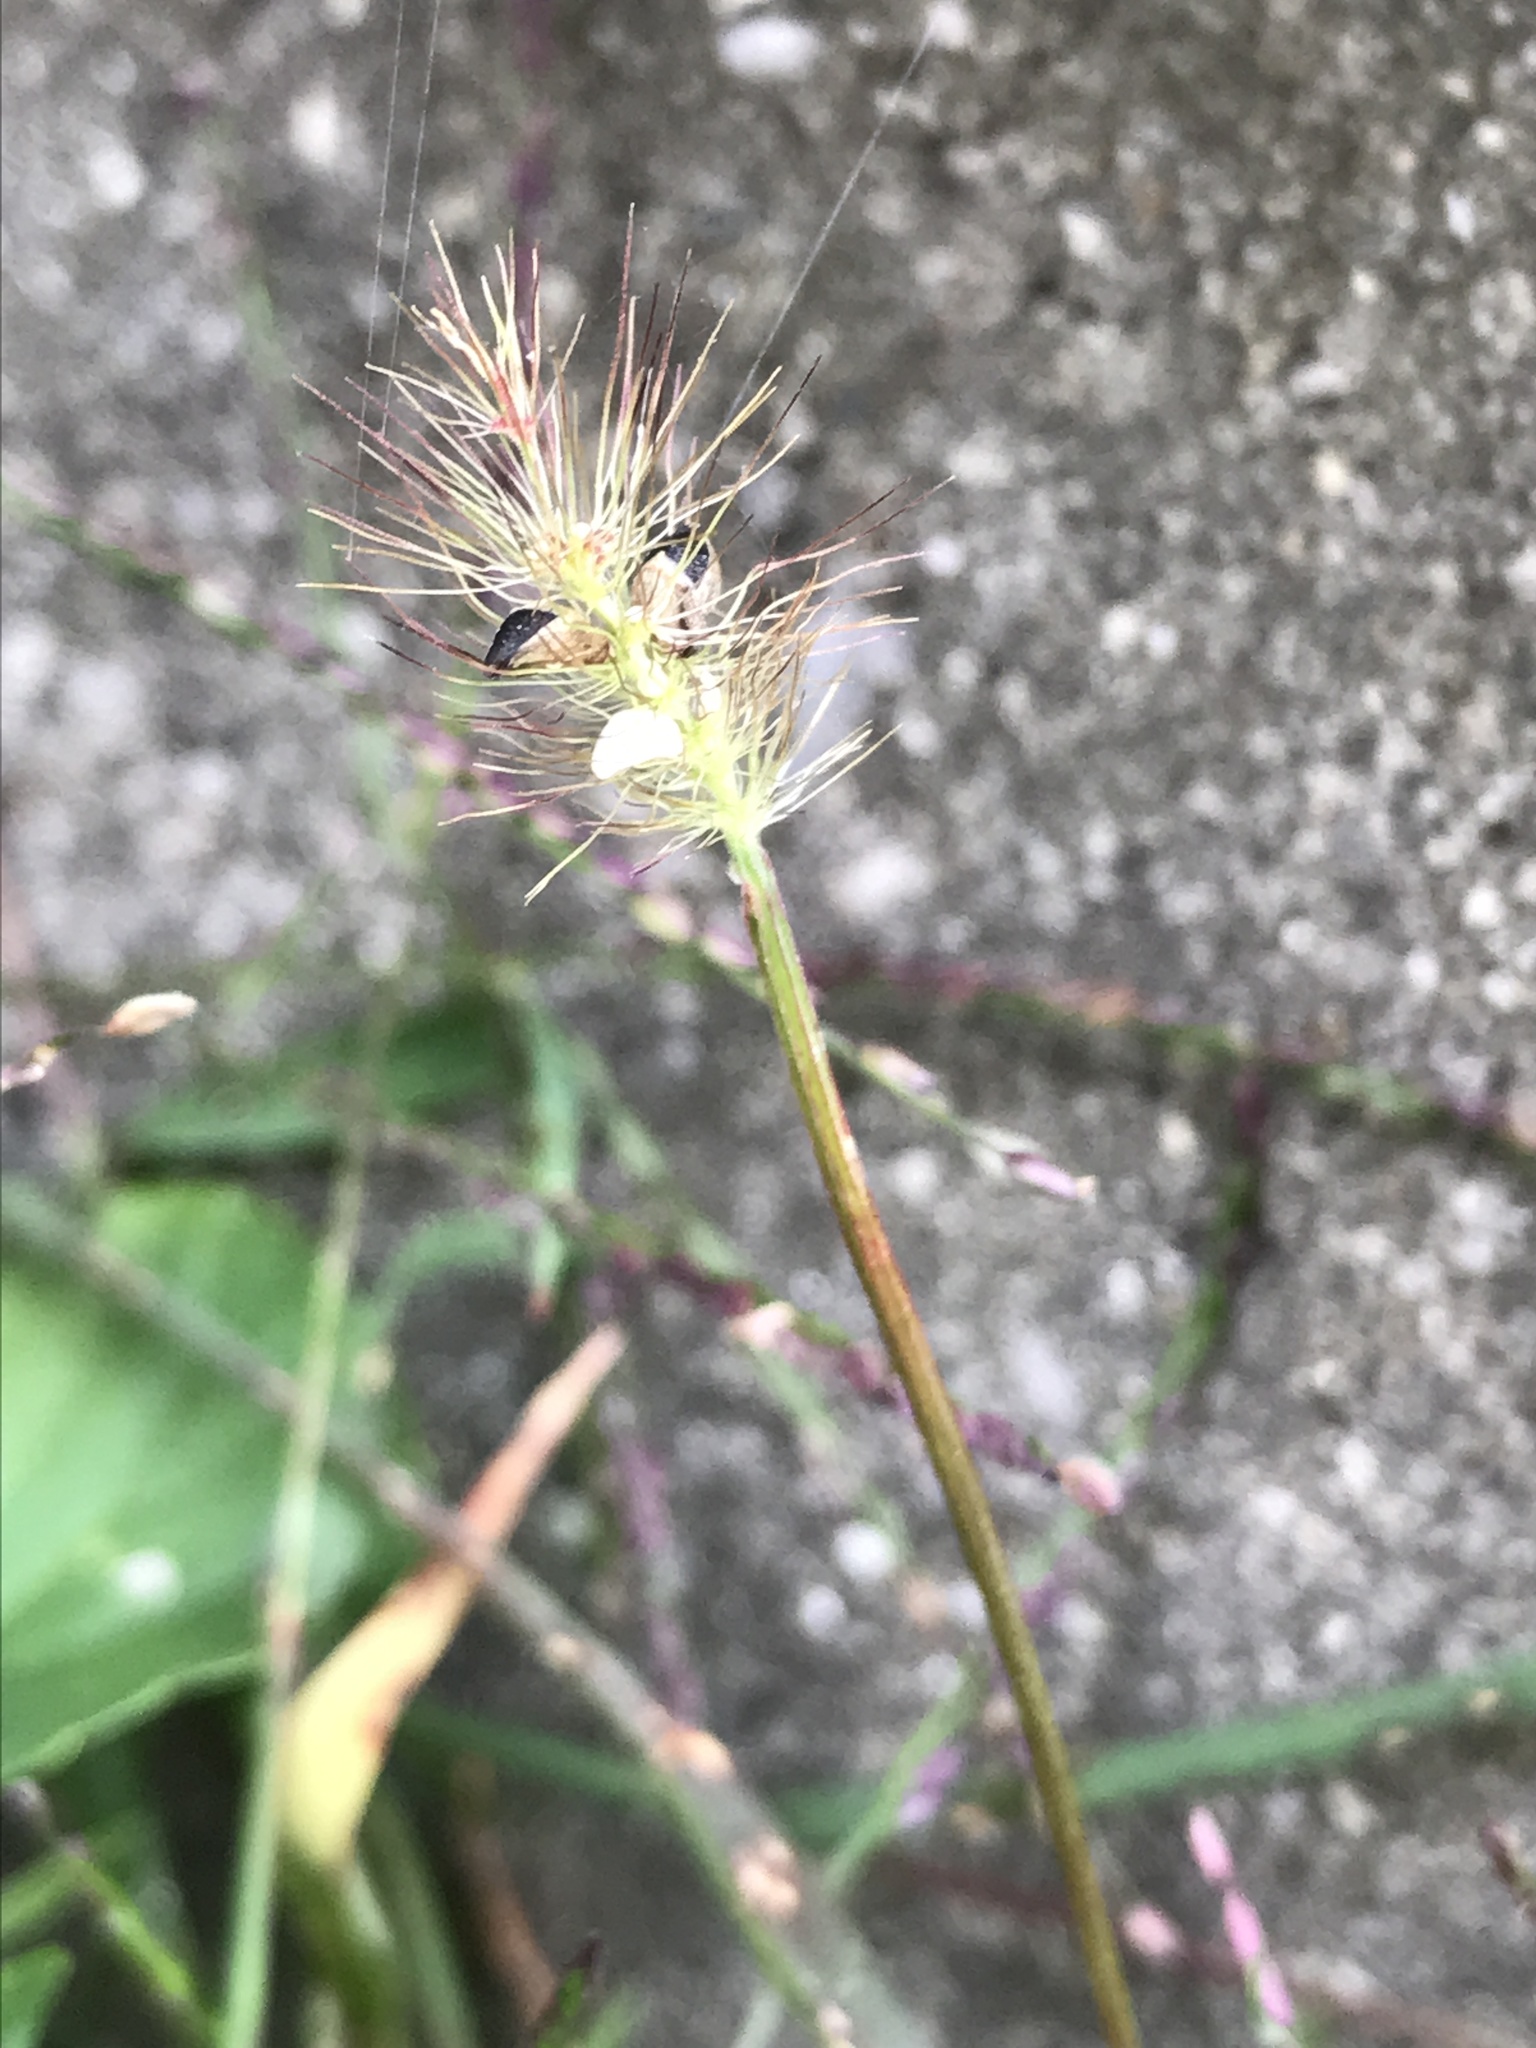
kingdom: Plantae
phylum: Tracheophyta
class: Liliopsida
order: Poales
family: Poaceae
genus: Setaria
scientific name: Setaria pumila
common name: Yellow bristle-grass
